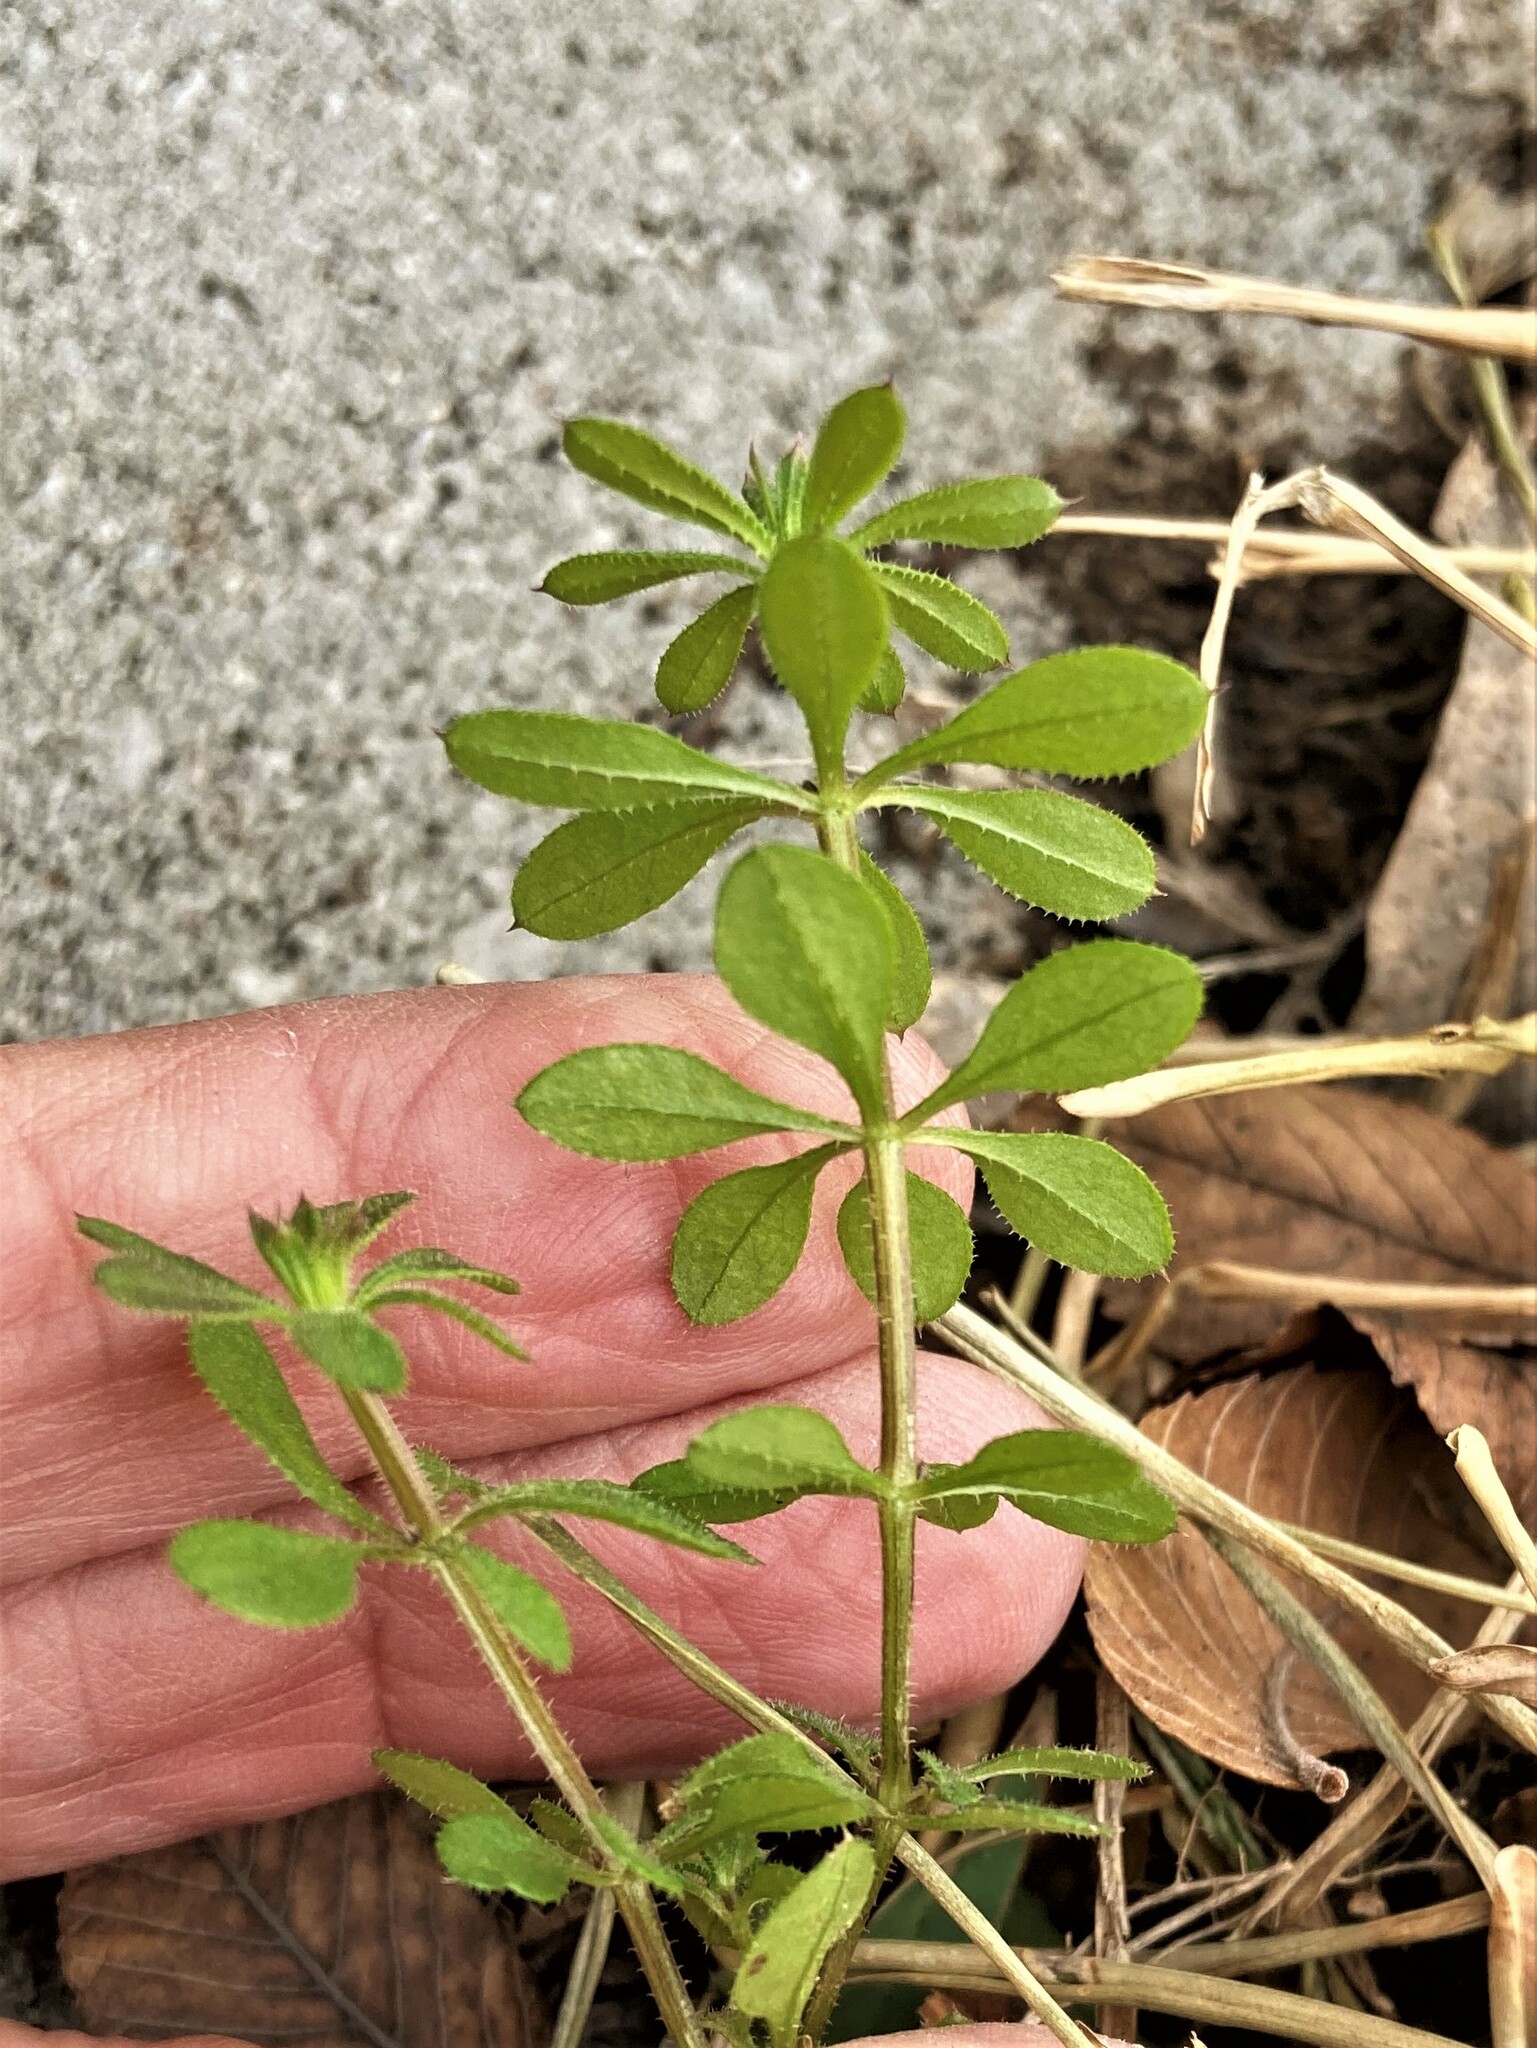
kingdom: Plantae
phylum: Tracheophyta
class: Magnoliopsida
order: Gentianales
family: Rubiaceae
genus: Galium
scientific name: Galium aparine
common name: Cleavers
